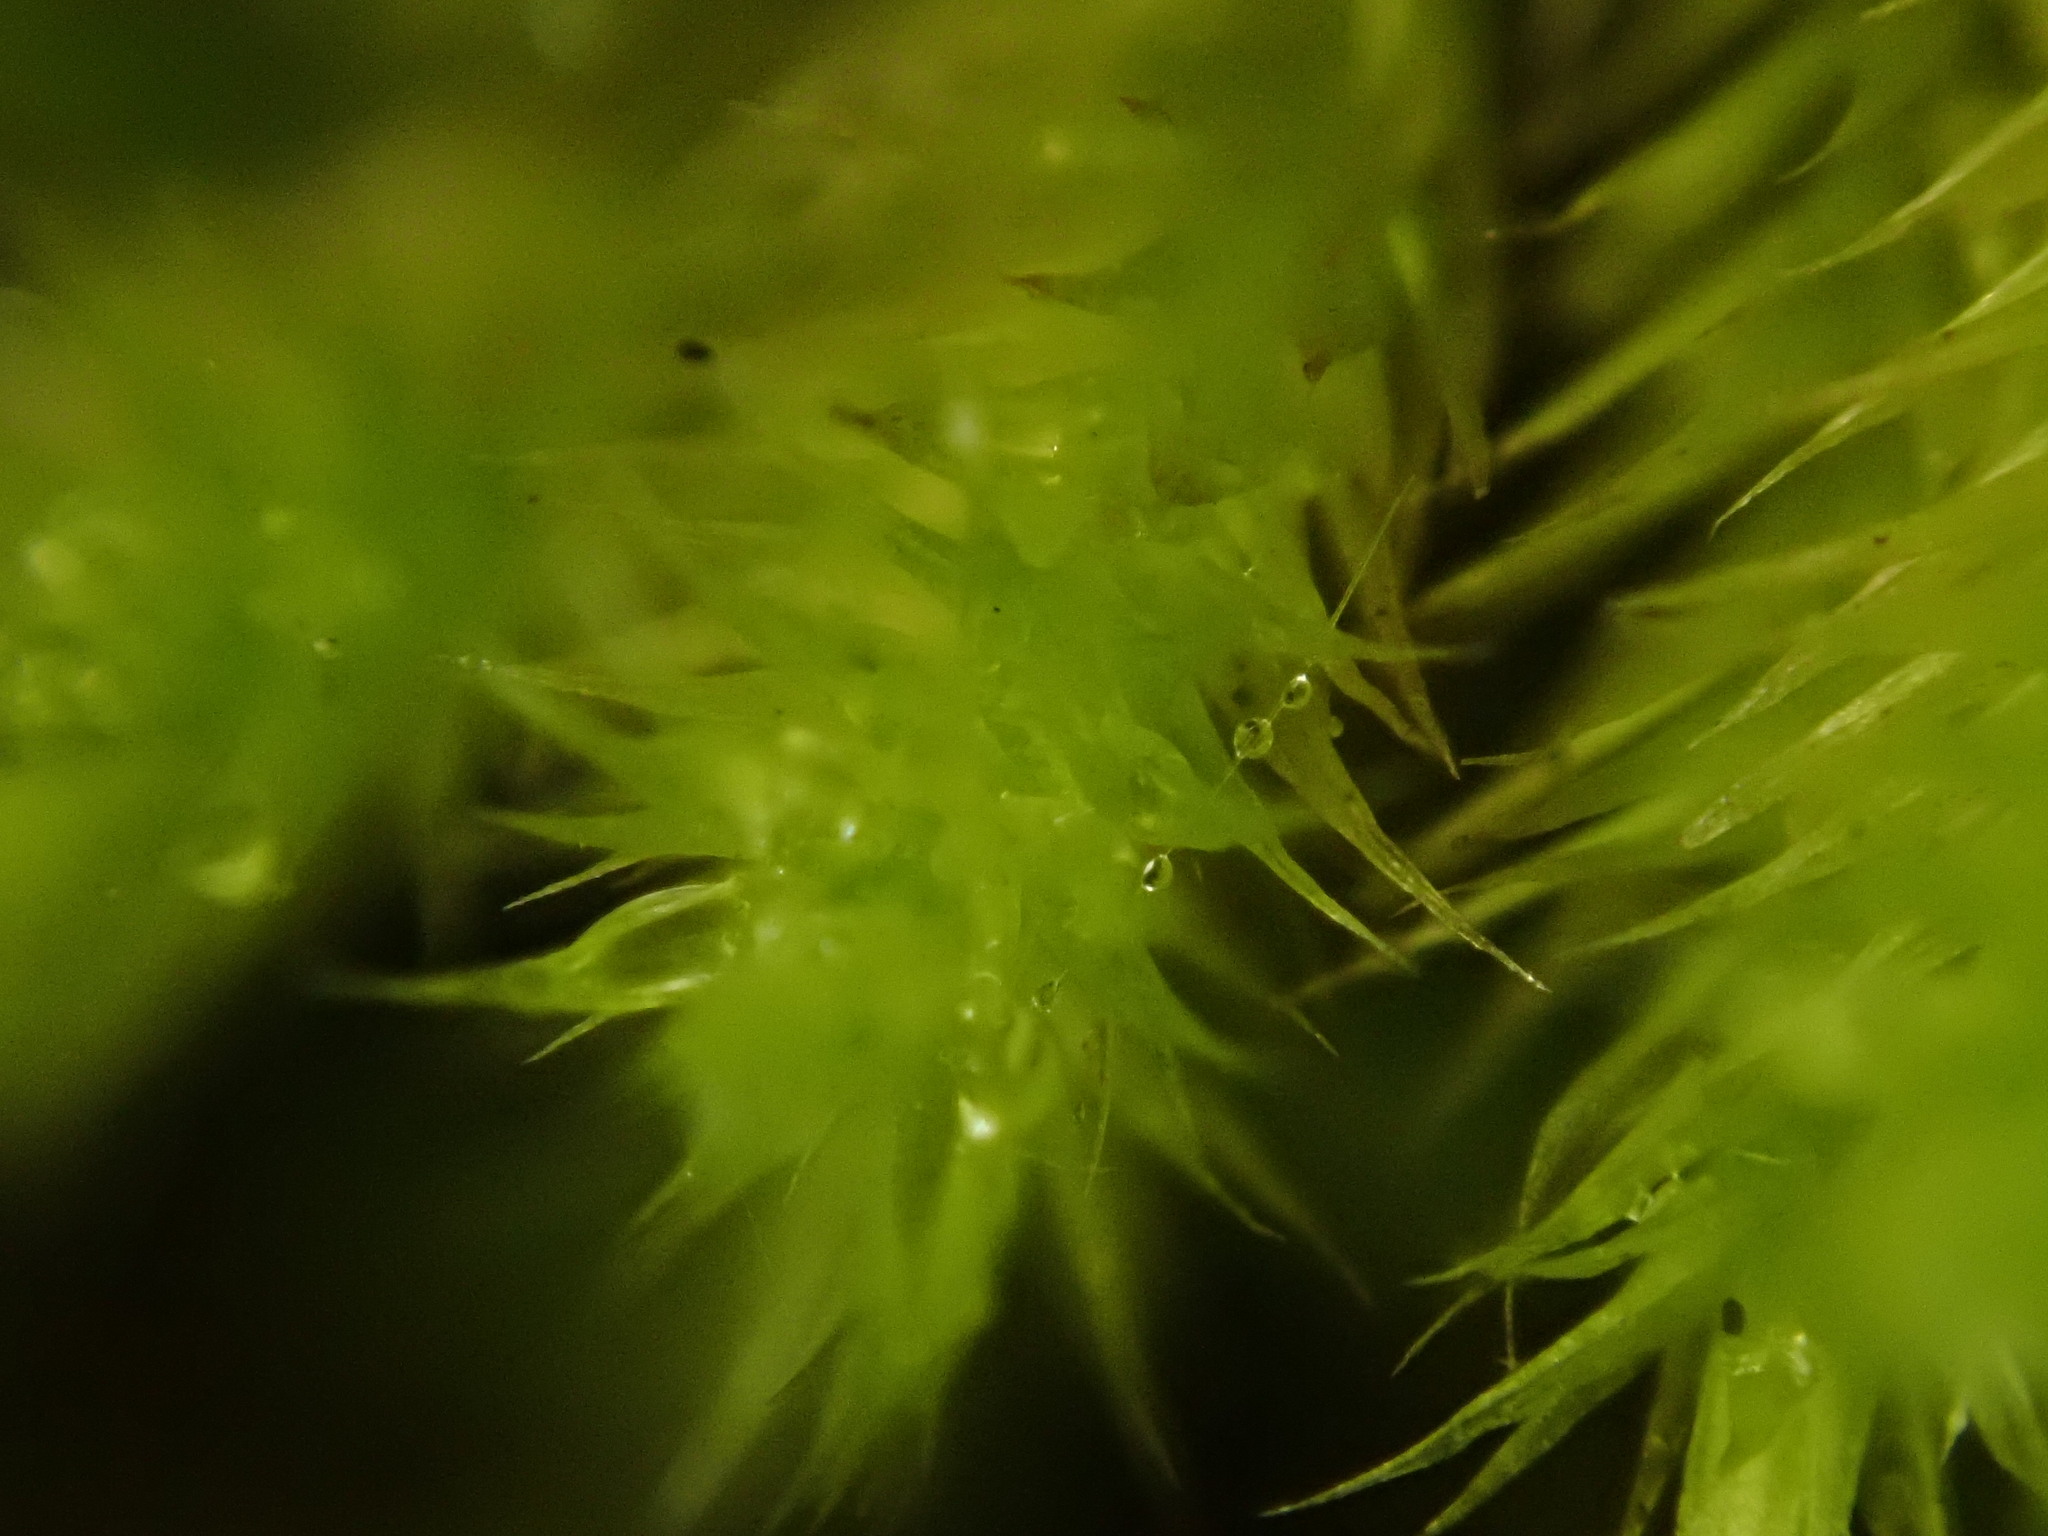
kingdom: Plantae
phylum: Bryophyta
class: Bryopsida
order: Hypnales
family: Brachytheciaceae
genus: Homalothecium
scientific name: Homalothecium sericeum
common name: Silky wall feather-moss
